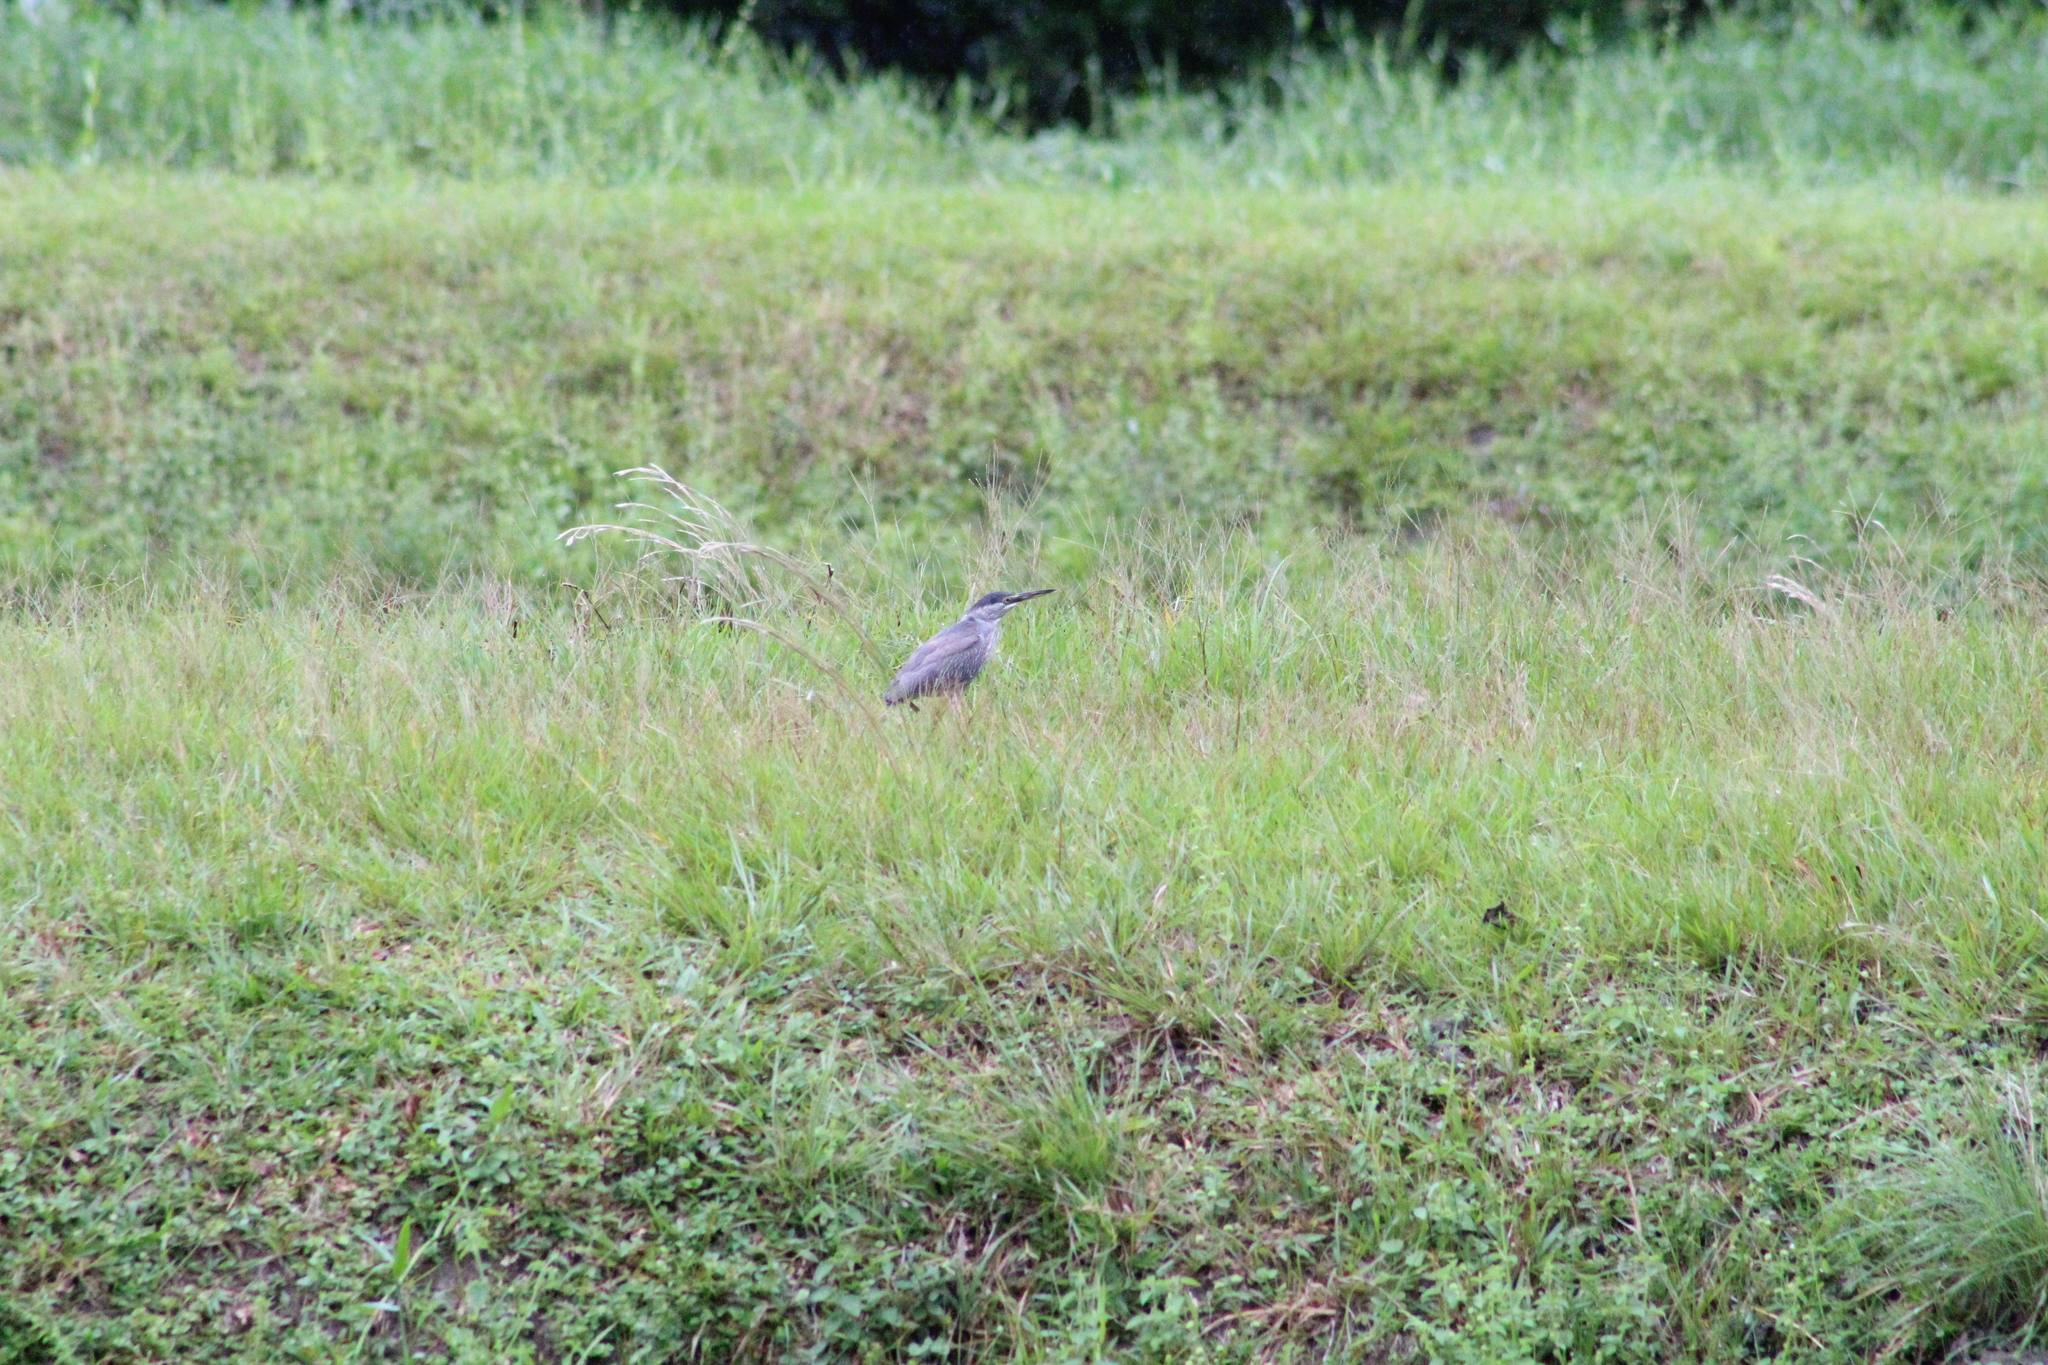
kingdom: Animalia
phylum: Chordata
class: Aves
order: Pelecaniformes
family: Ardeidae
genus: Butorides
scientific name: Butorides striata
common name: Striated heron
